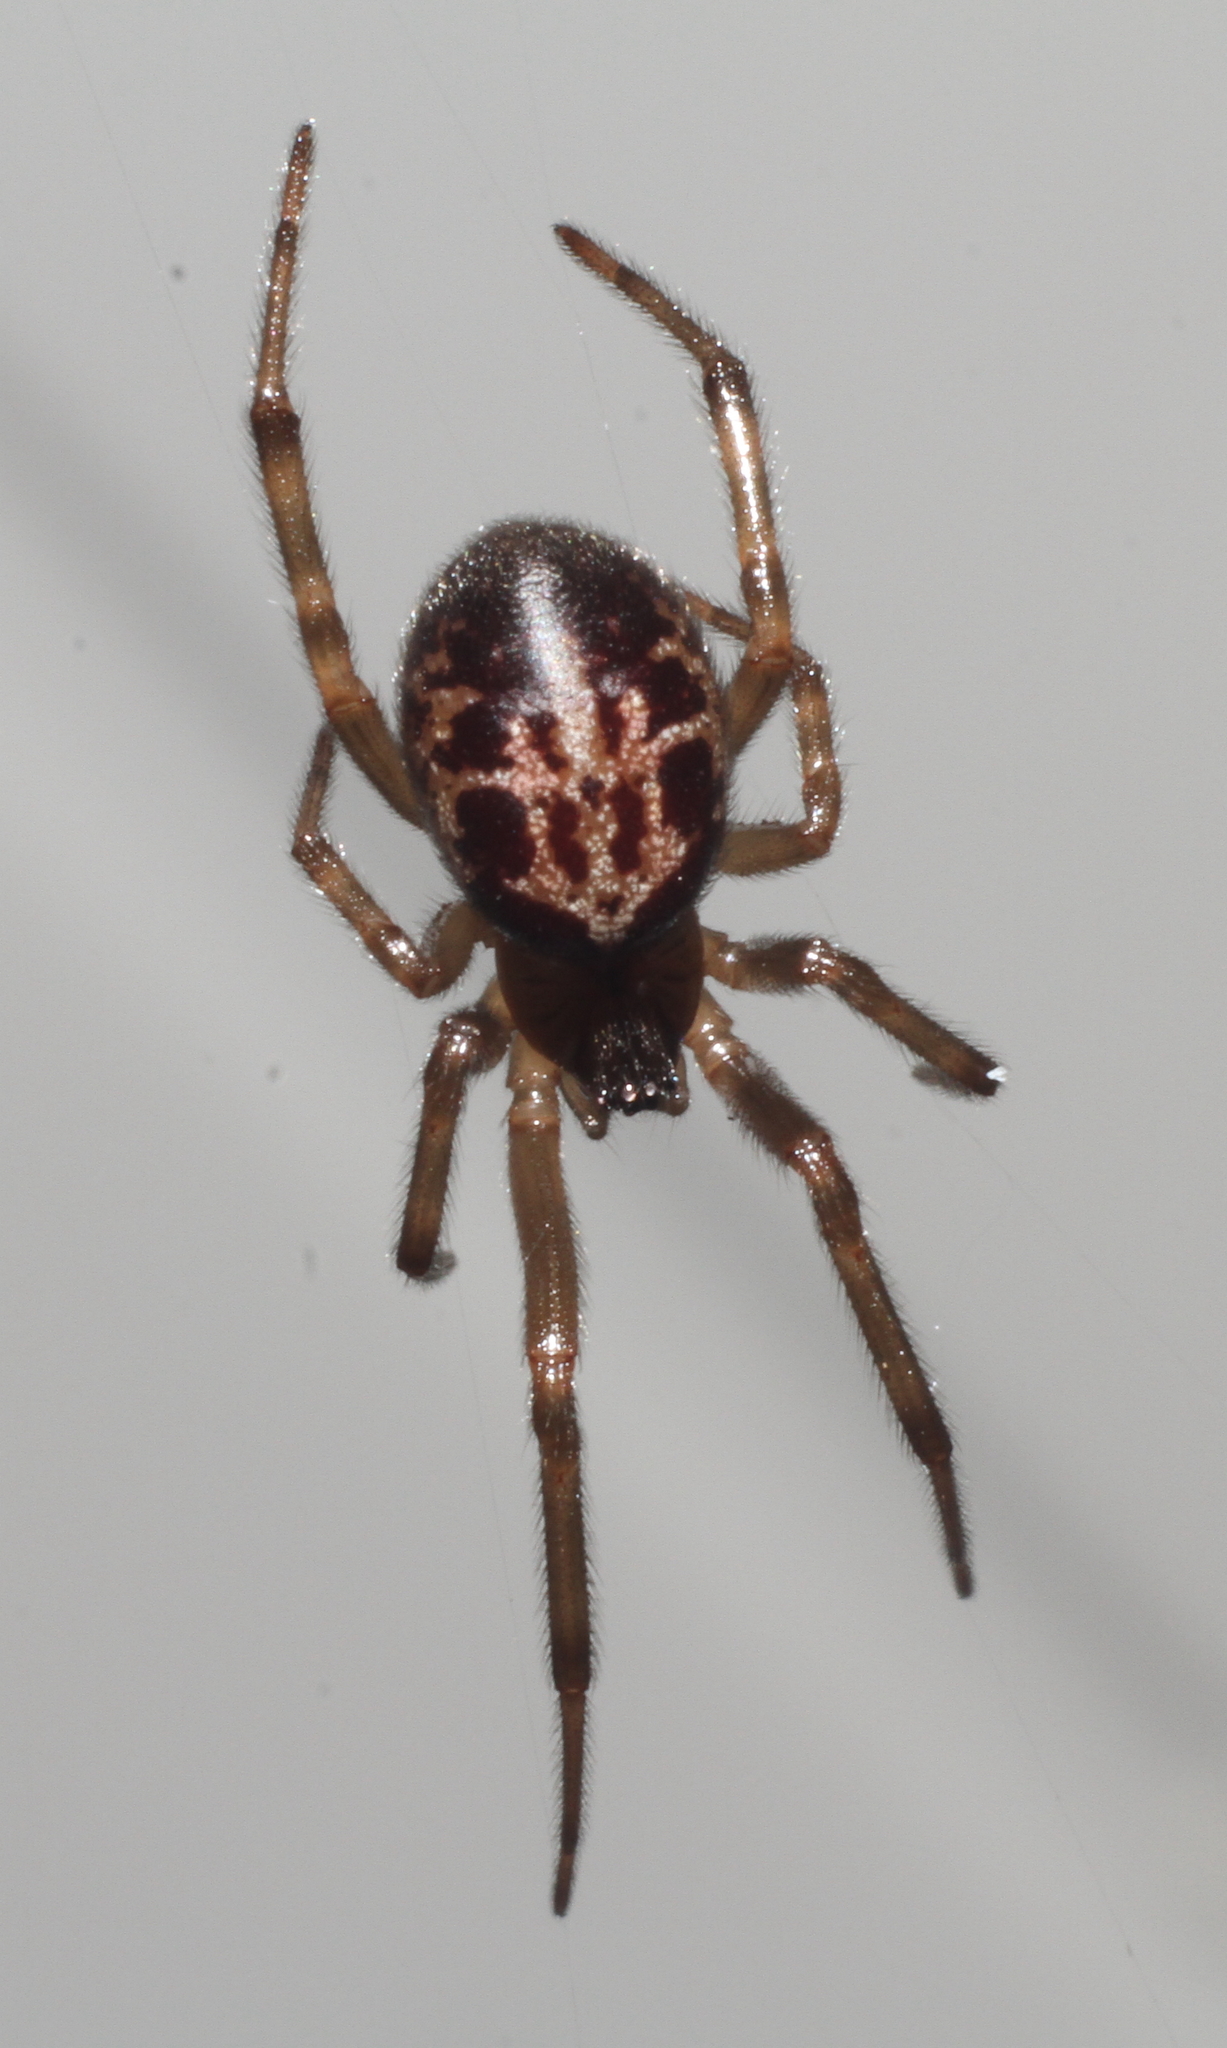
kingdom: Animalia
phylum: Arthropoda
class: Arachnida
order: Araneae
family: Theridiidae
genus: Steatoda
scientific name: Steatoda nobilis
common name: Cobweb weaver
